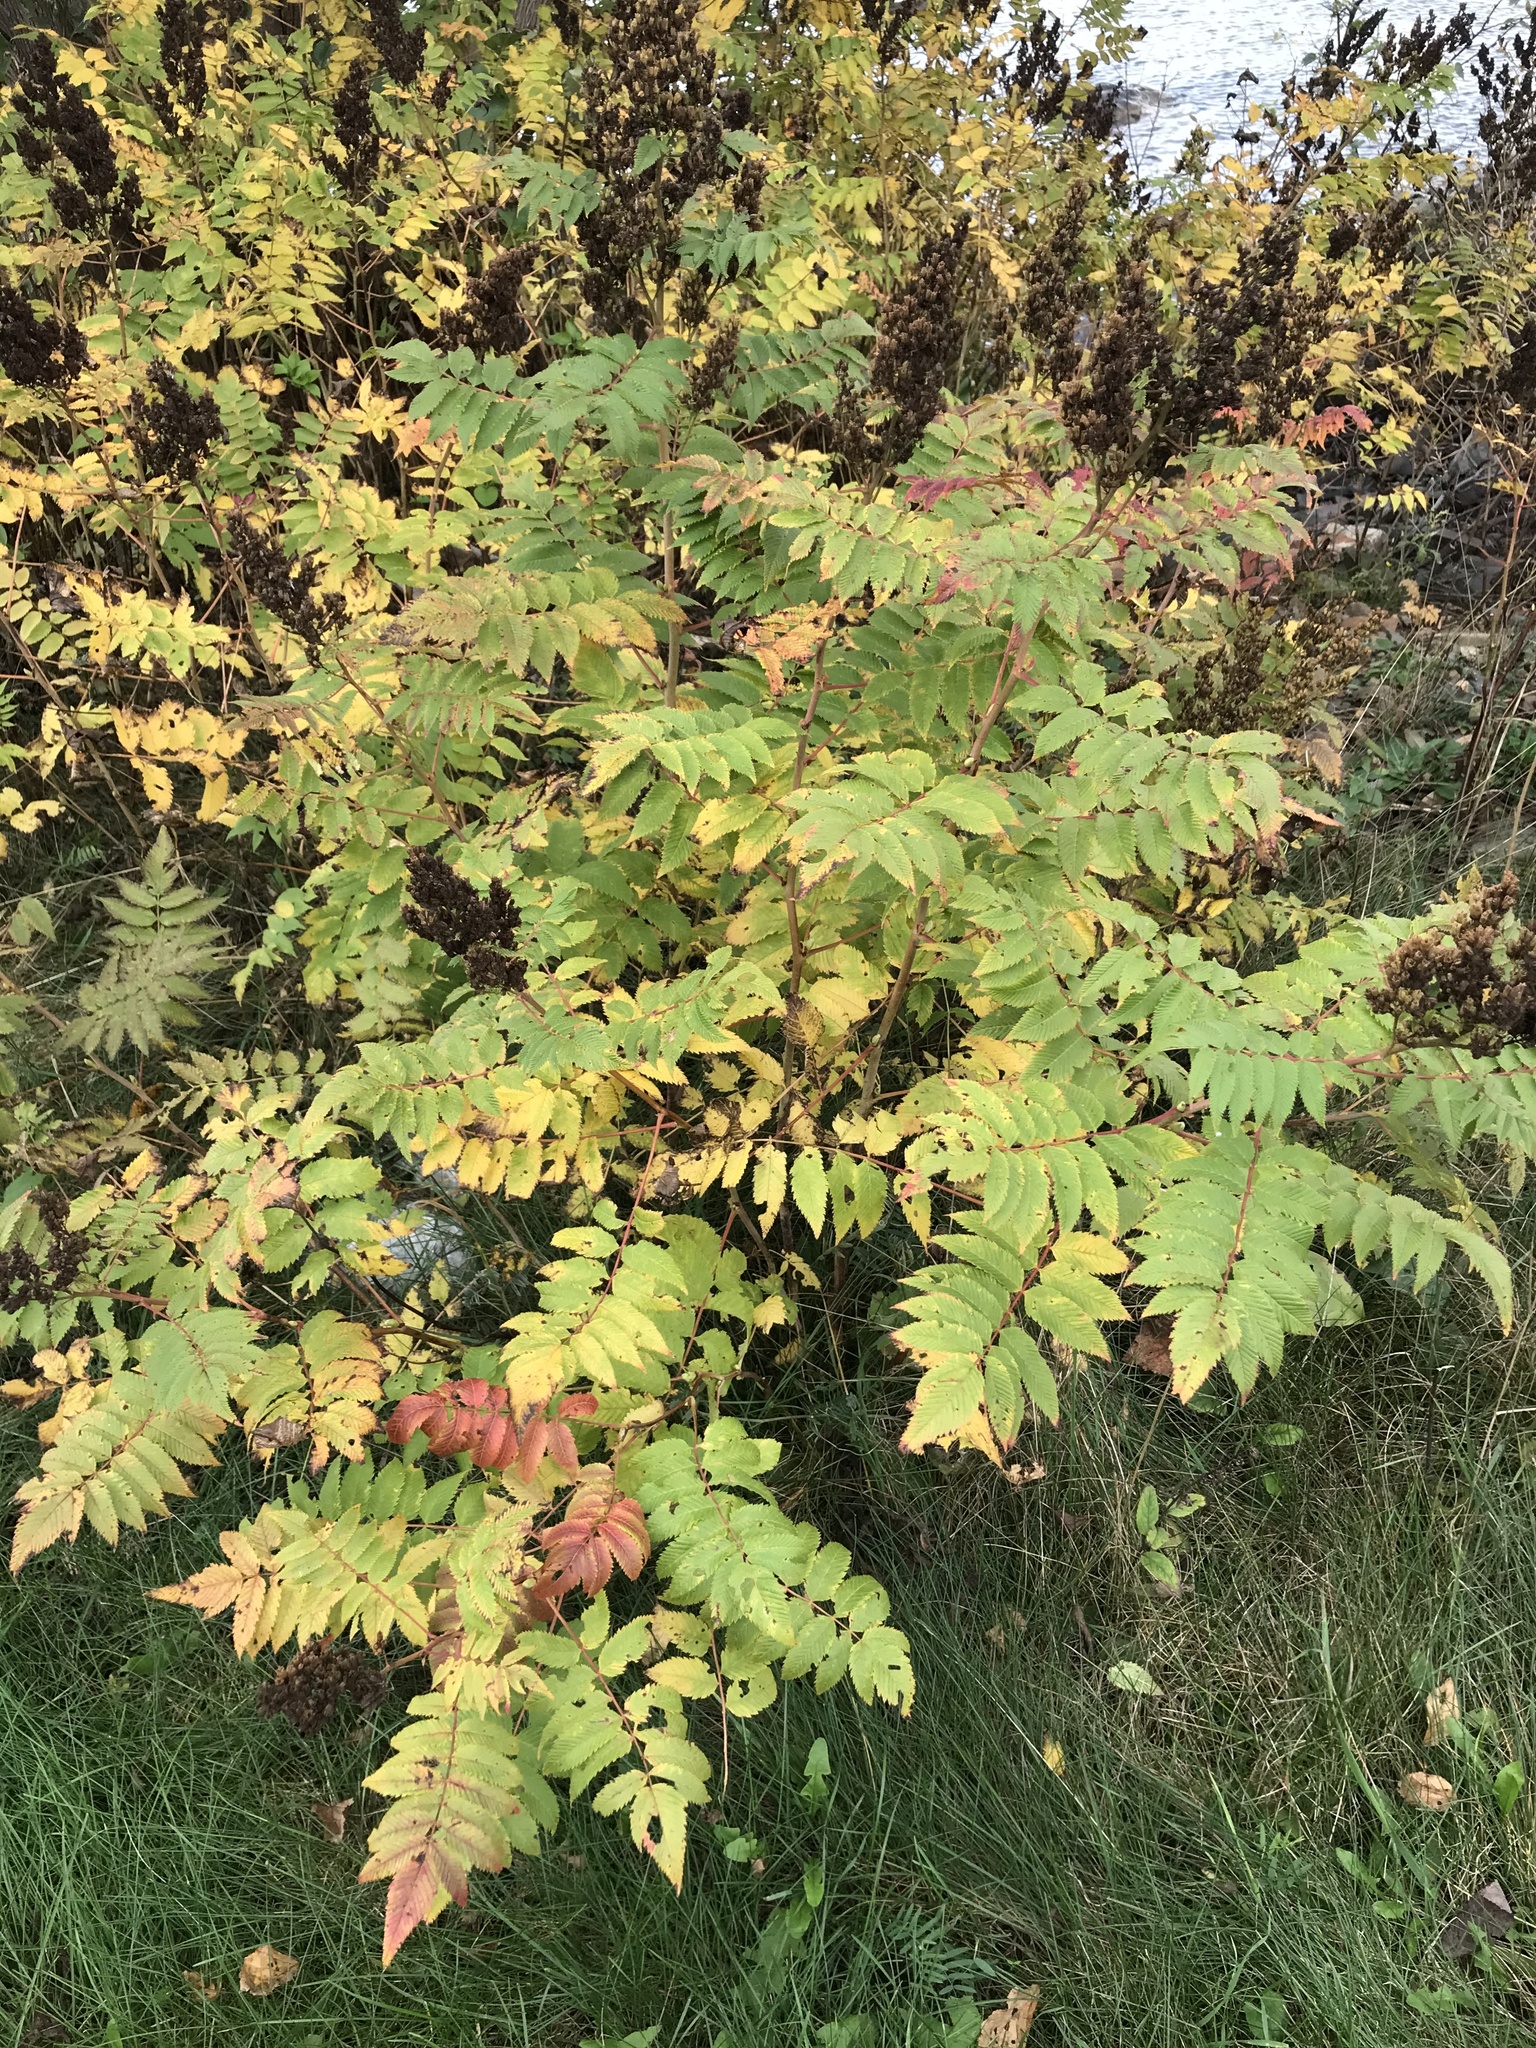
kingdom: Plantae
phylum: Tracheophyta
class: Magnoliopsida
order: Rosales
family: Rosaceae
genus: Sorbaria
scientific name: Sorbaria sorbifolia
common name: False spiraea
